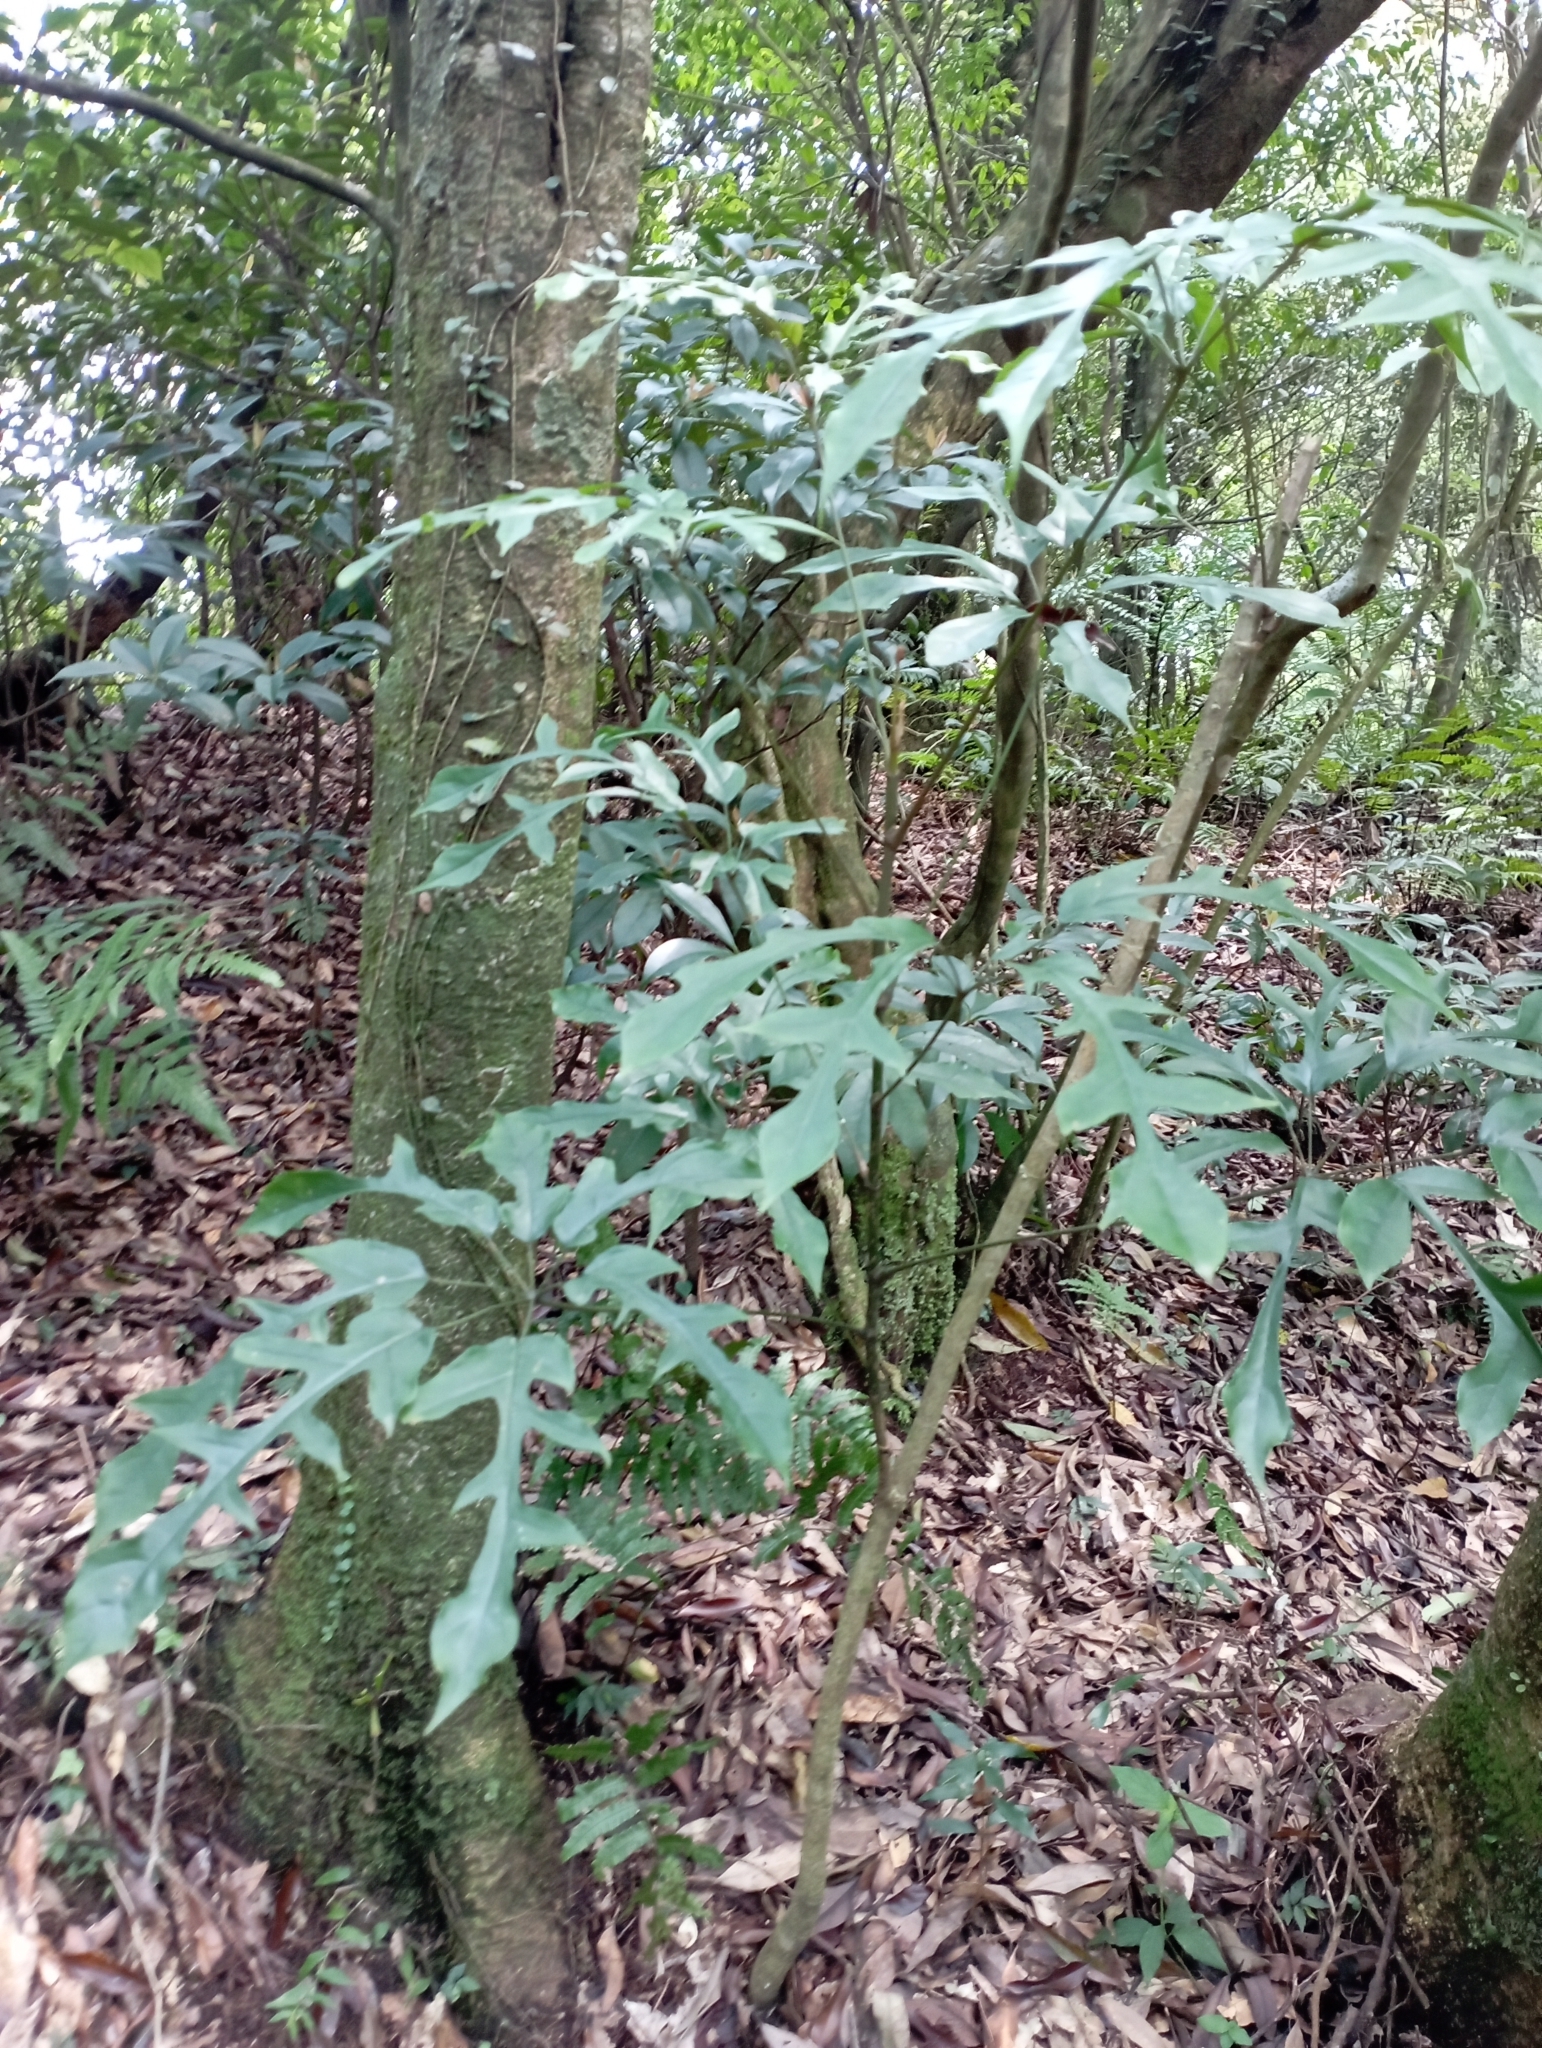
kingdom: Plantae
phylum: Tracheophyta
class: Magnoliopsida
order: Apiales
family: Araliaceae
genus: Heptapleurum
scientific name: Heptapleurum heptaphyllum
